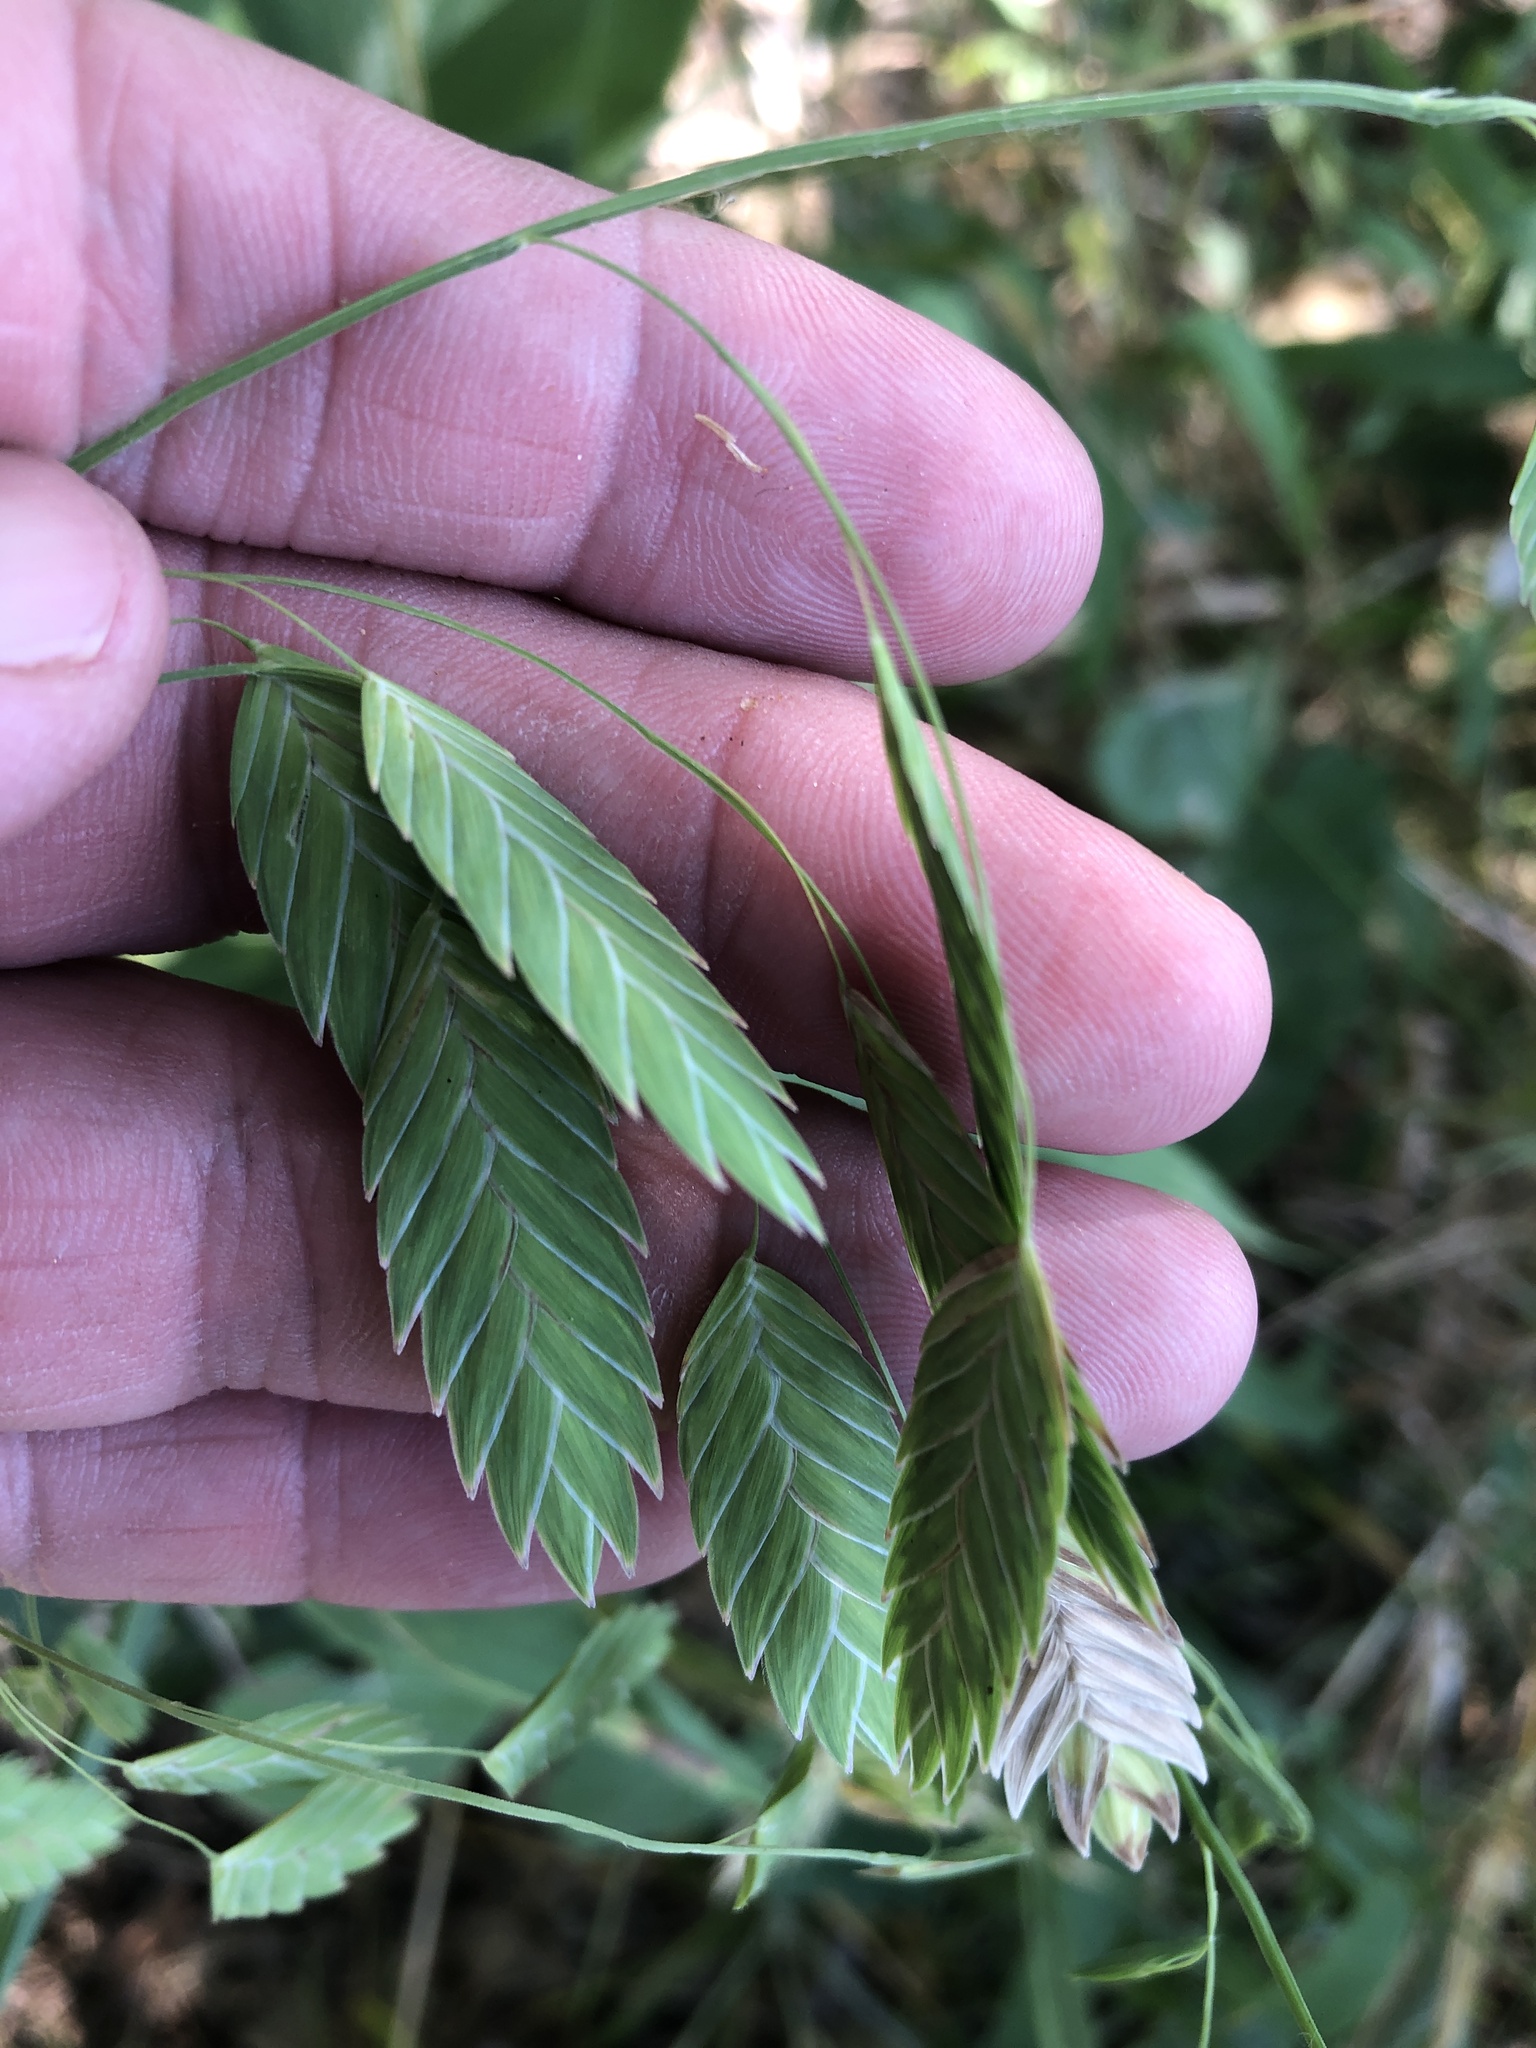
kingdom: Plantae
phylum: Tracheophyta
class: Liliopsida
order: Poales
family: Poaceae
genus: Chasmanthium
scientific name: Chasmanthium latifolium
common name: Broad-leaved chasmanthium
